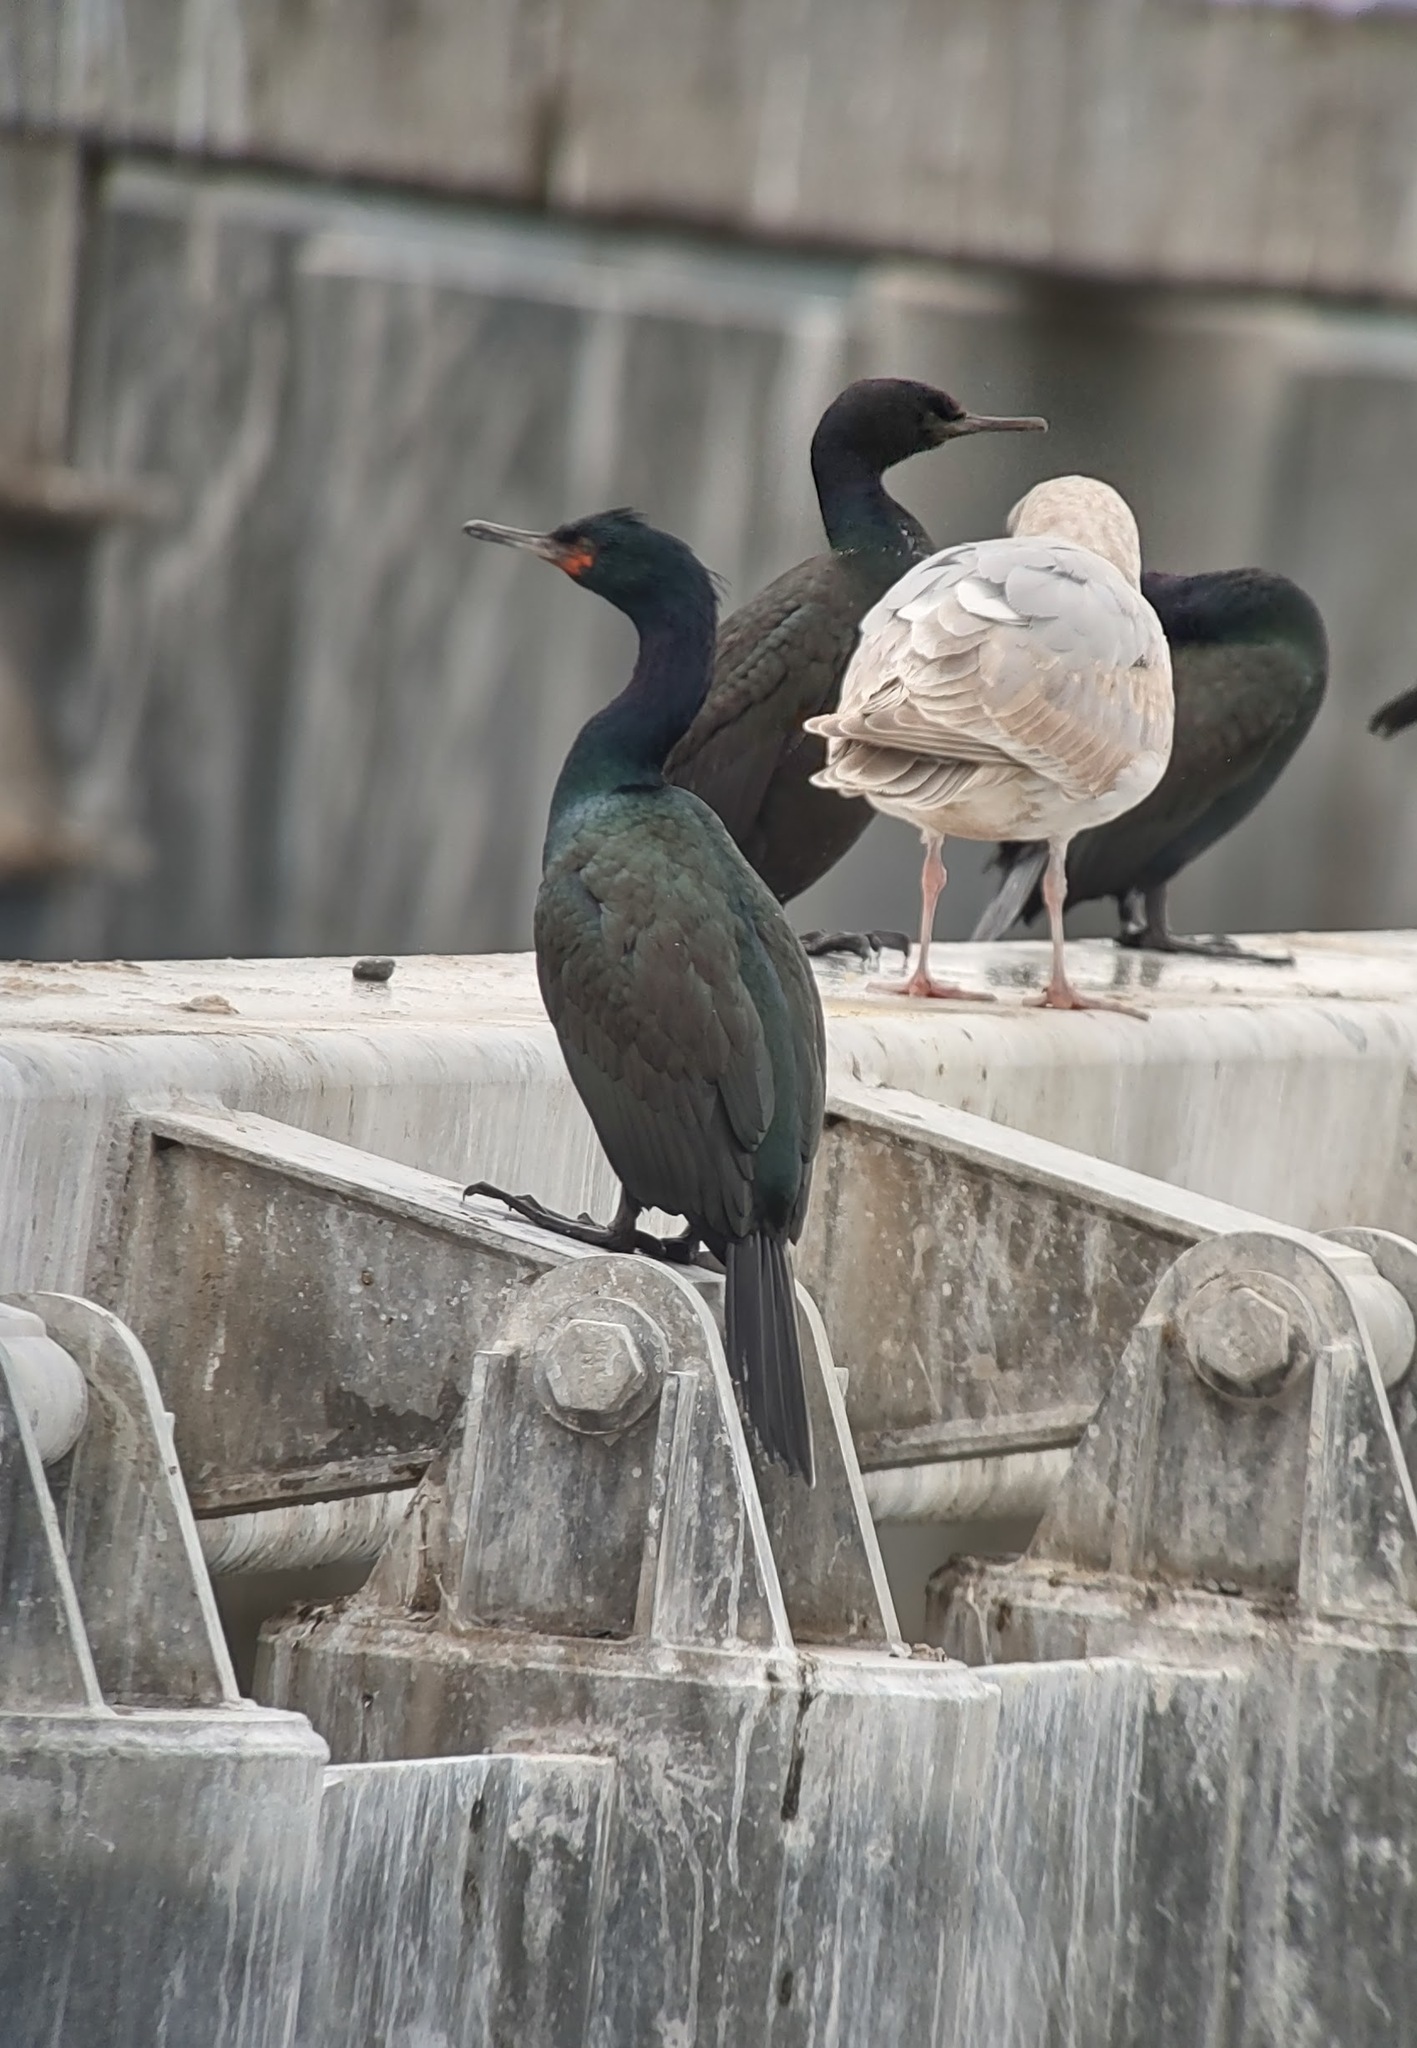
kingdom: Animalia
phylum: Chordata
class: Aves
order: Suliformes
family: Phalacrocoracidae
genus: Phalacrocorax
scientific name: Phalacrocorax pelagicus
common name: Pelagic cormorant
